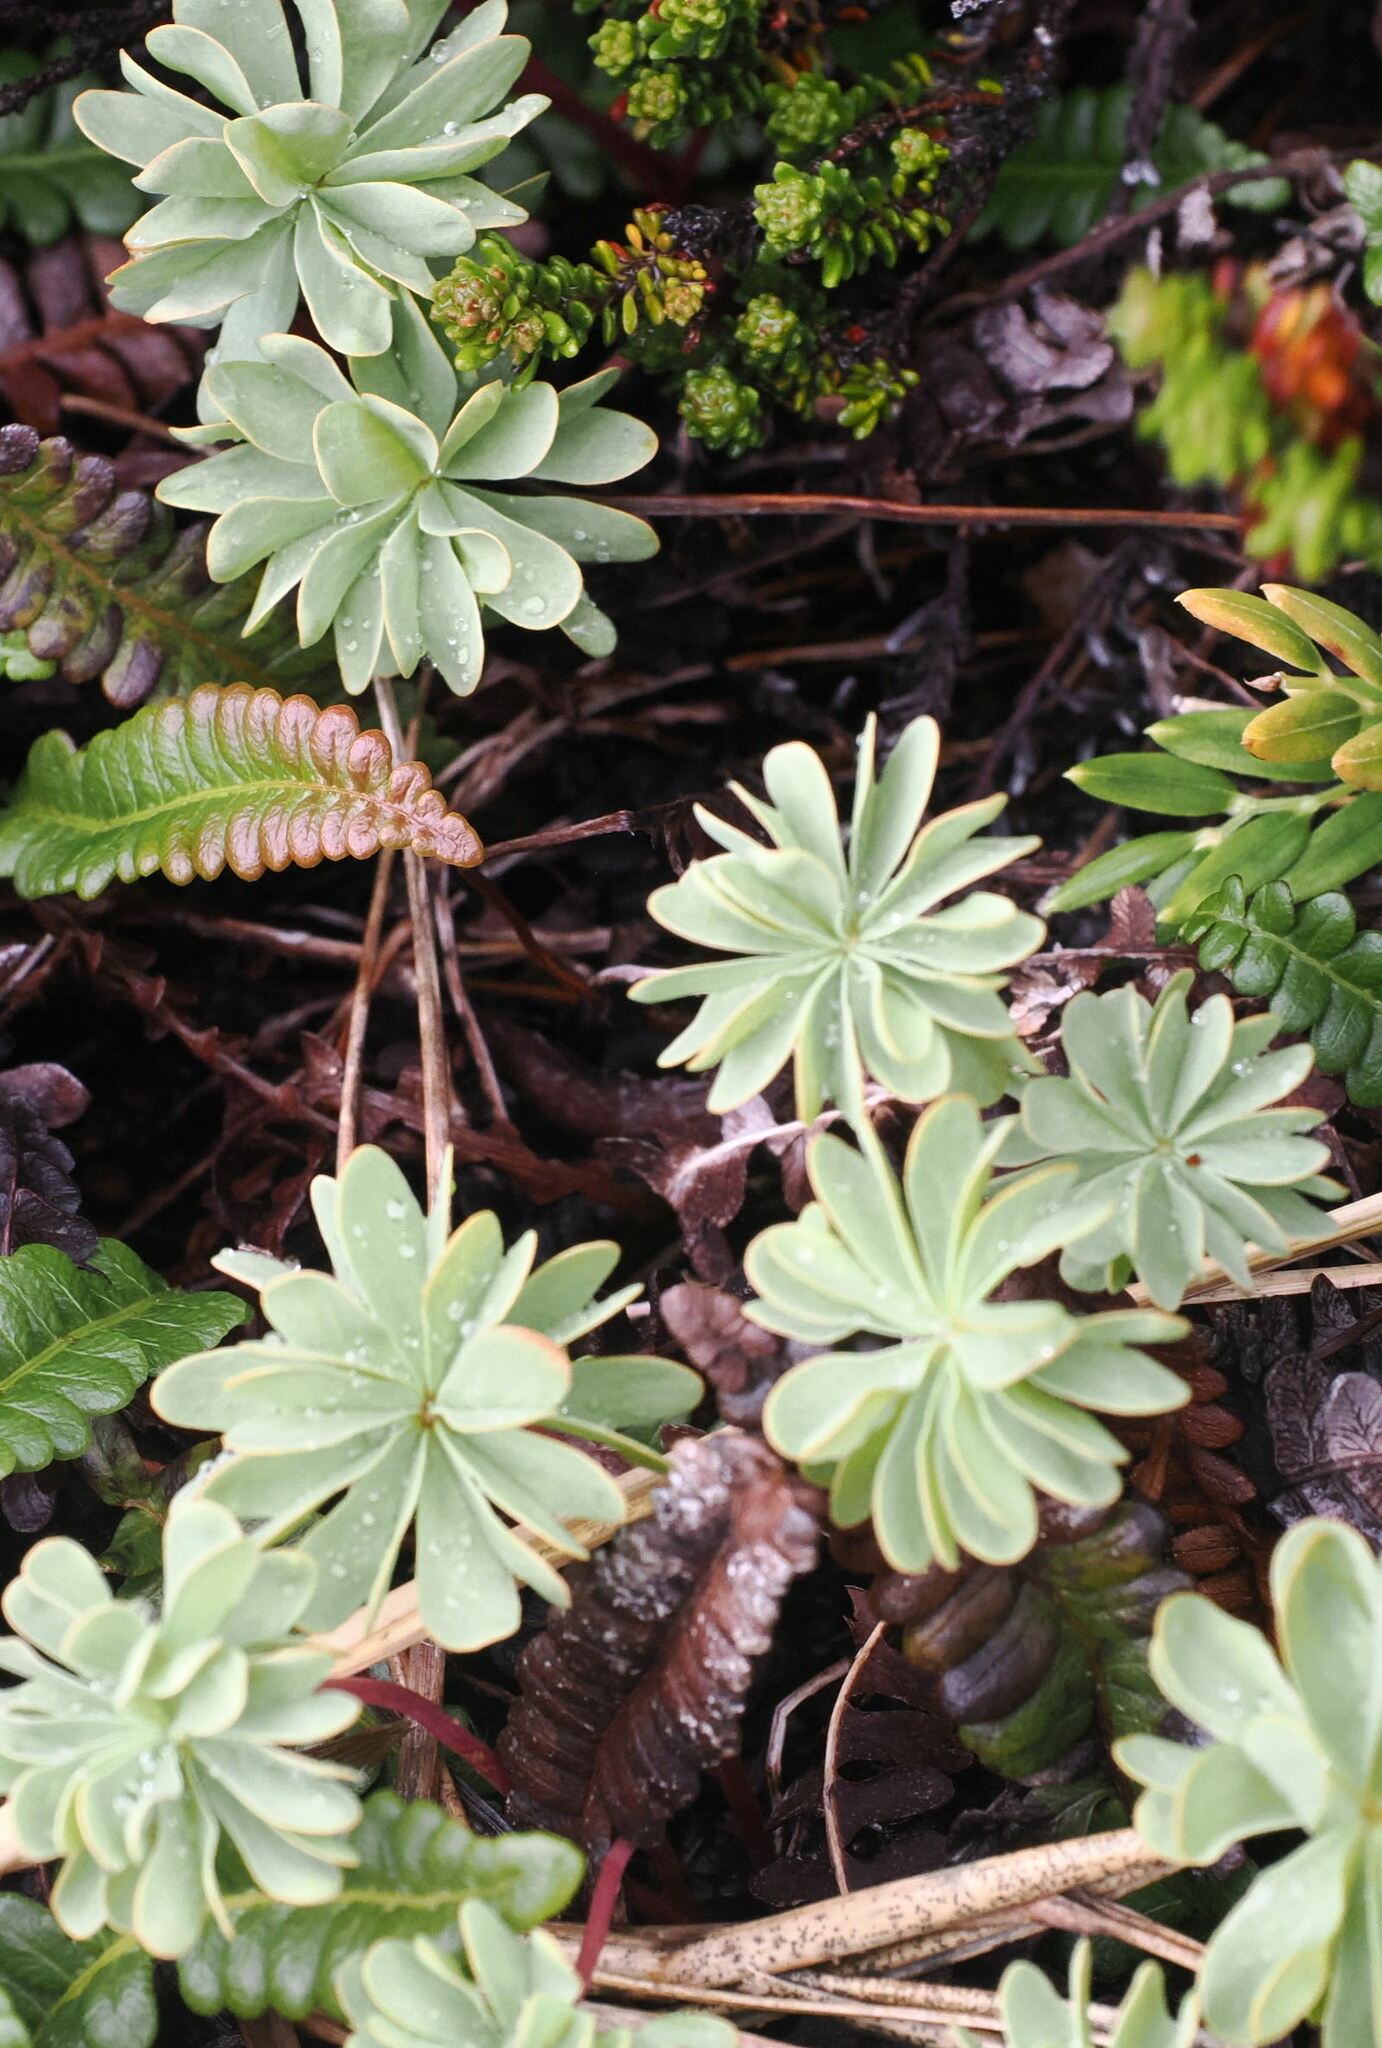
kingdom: Plantae
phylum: Tracheophyta
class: Magnoliopsida
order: Oxalidales
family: Oxalidaceae
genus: Oxalis
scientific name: Oxalis enneaphylla
